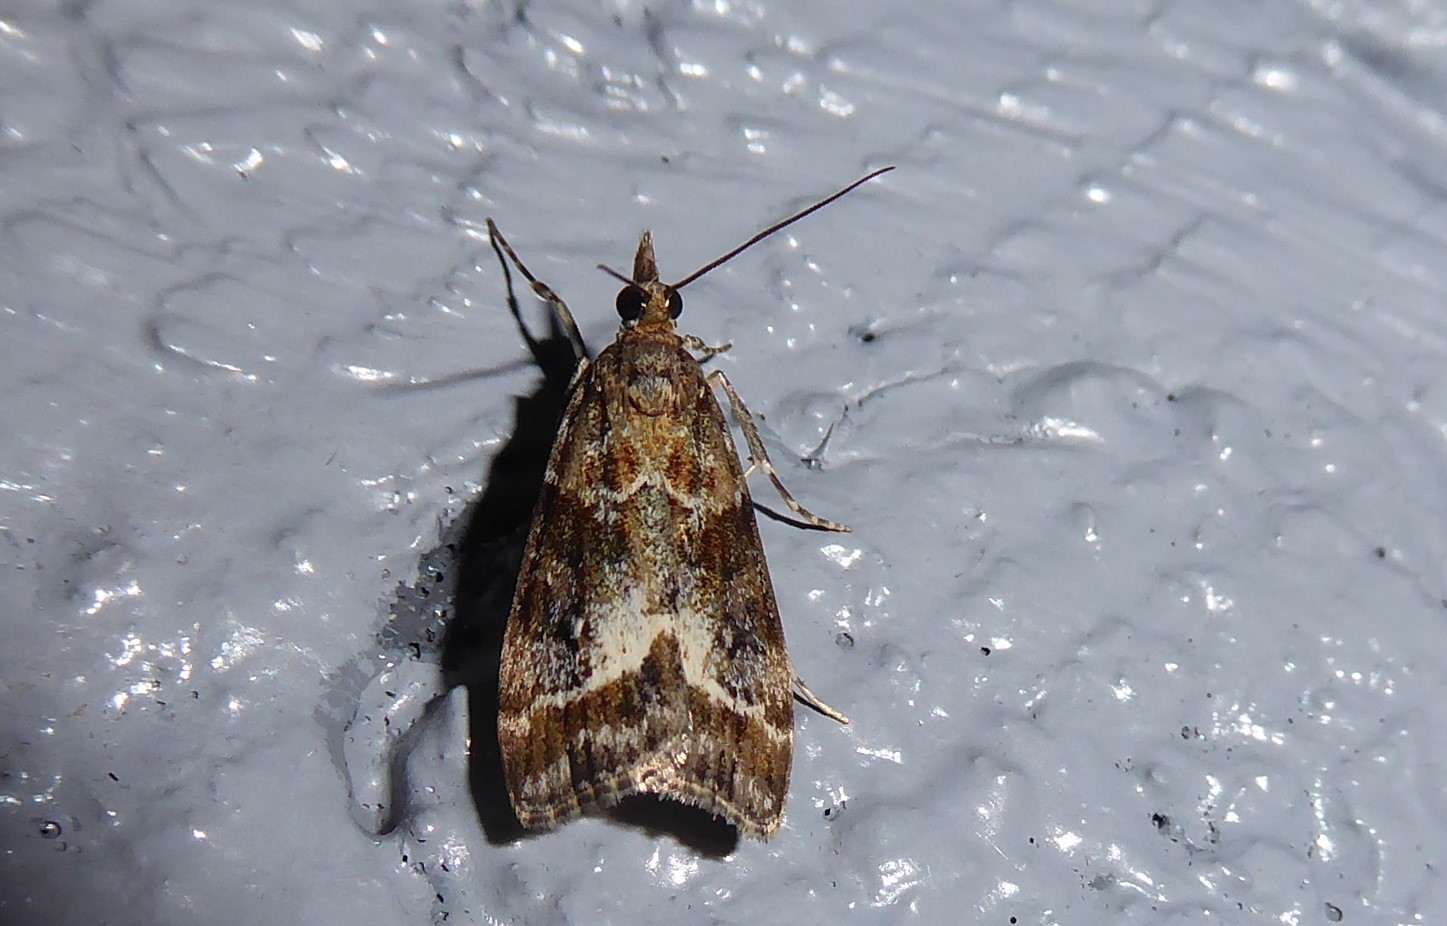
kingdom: Animalia
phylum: Arthropoda
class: Insecta
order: Lepidoptera
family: Crambidae
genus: Eudonia
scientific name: Eudonia legnota
